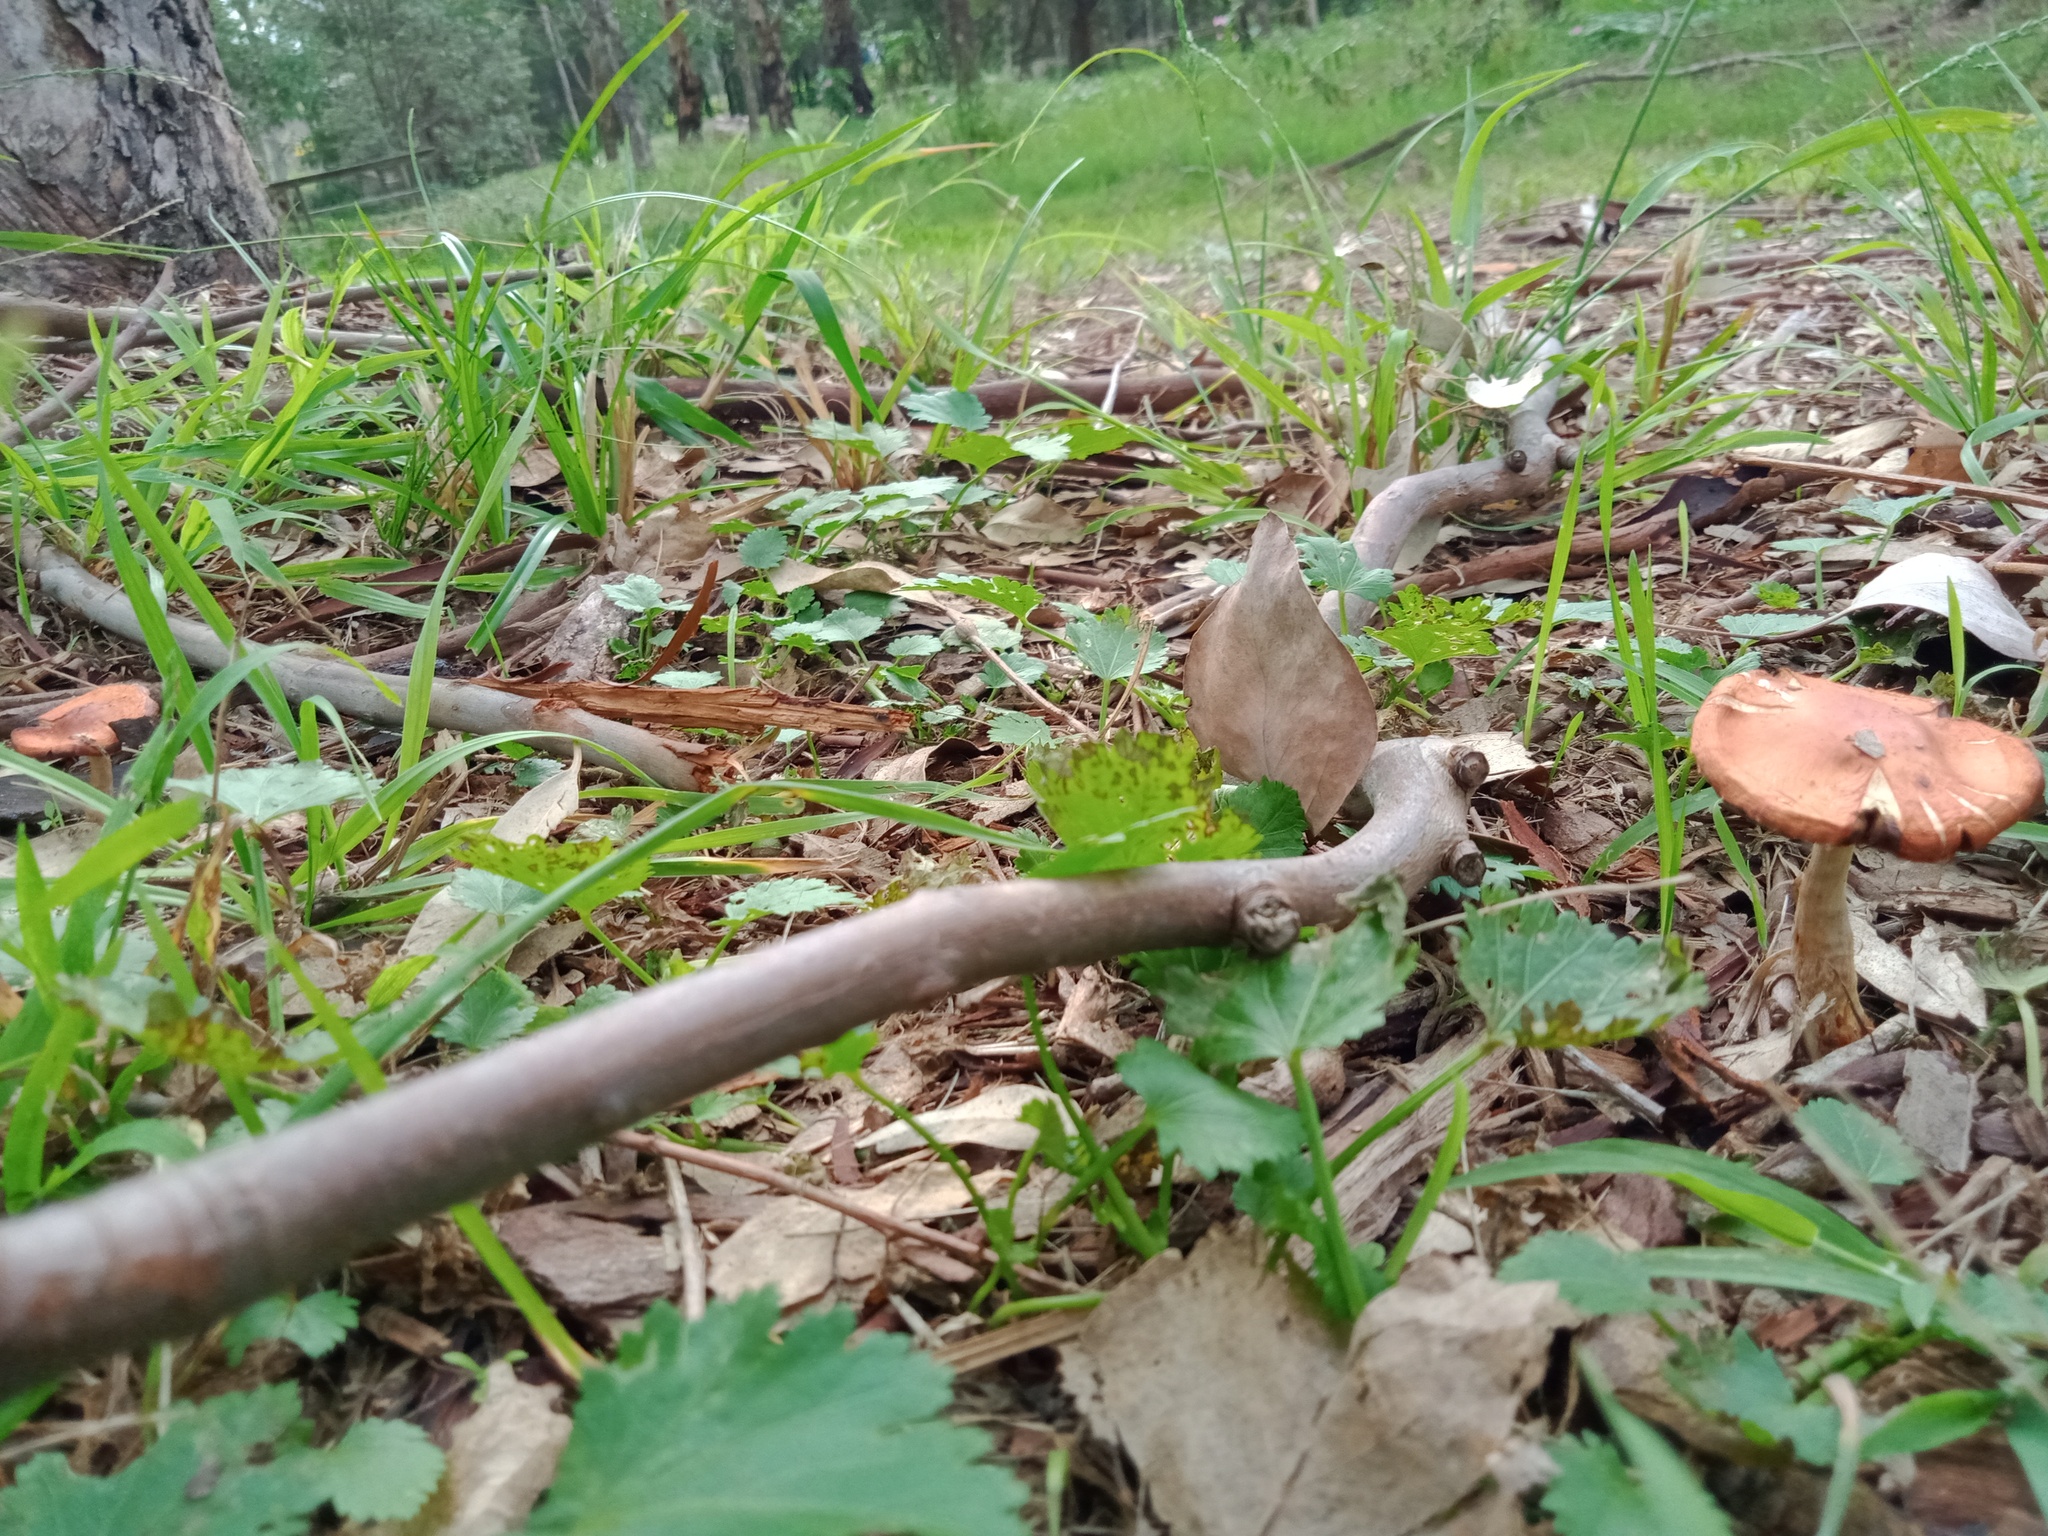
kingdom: Fungi
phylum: Basidiomycota
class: Agaricomycetes
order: Agaricales
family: Strophariaceae
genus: Leratiomyces
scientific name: Leratiomyces ceres
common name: Redlead roundhead
